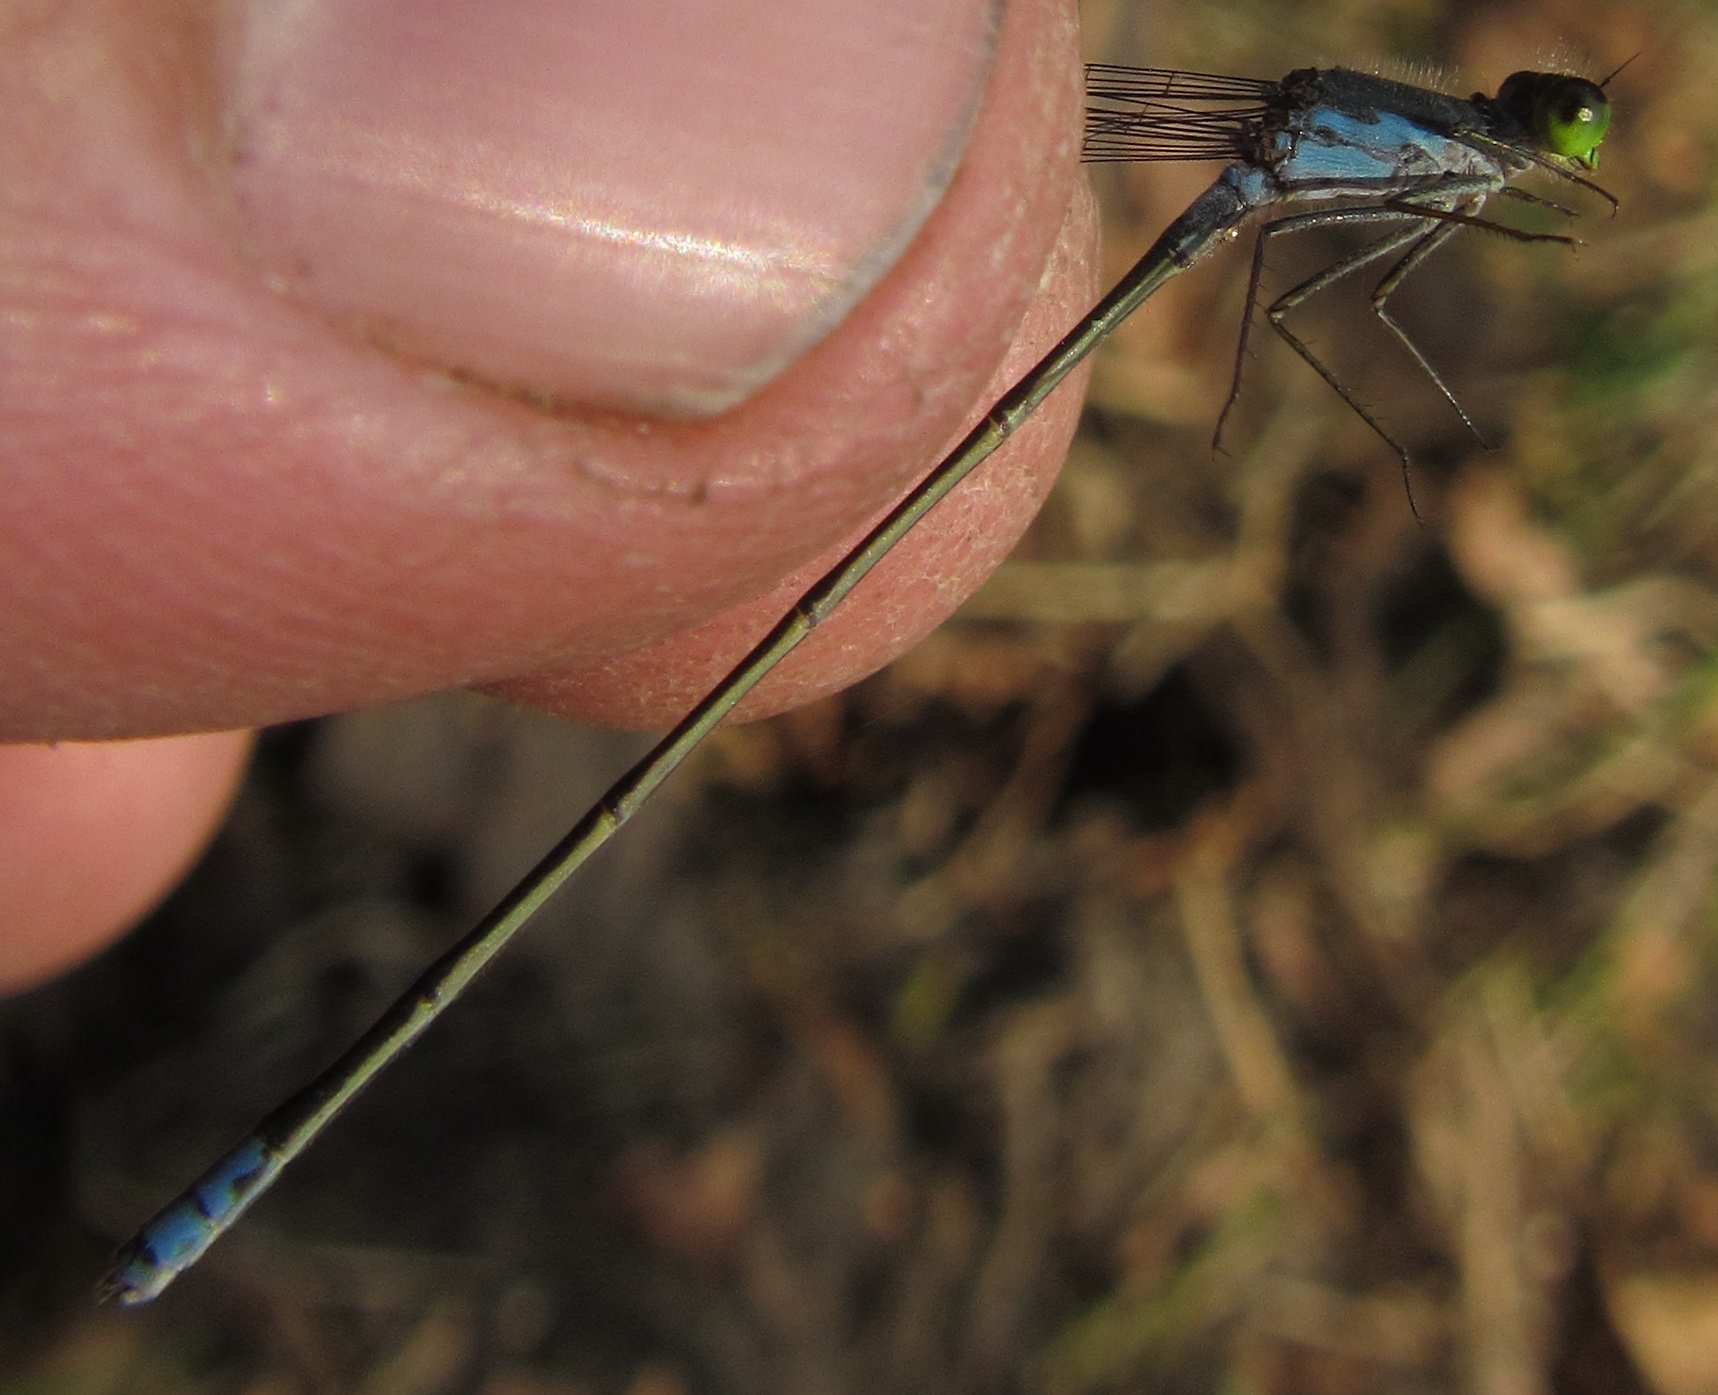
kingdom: Animalia
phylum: Arthropoda
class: Insecta
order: Odonata
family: Coenagrionidae
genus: Pseudagrion
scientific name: Pseudagrion deningi
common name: Dening's sprite
